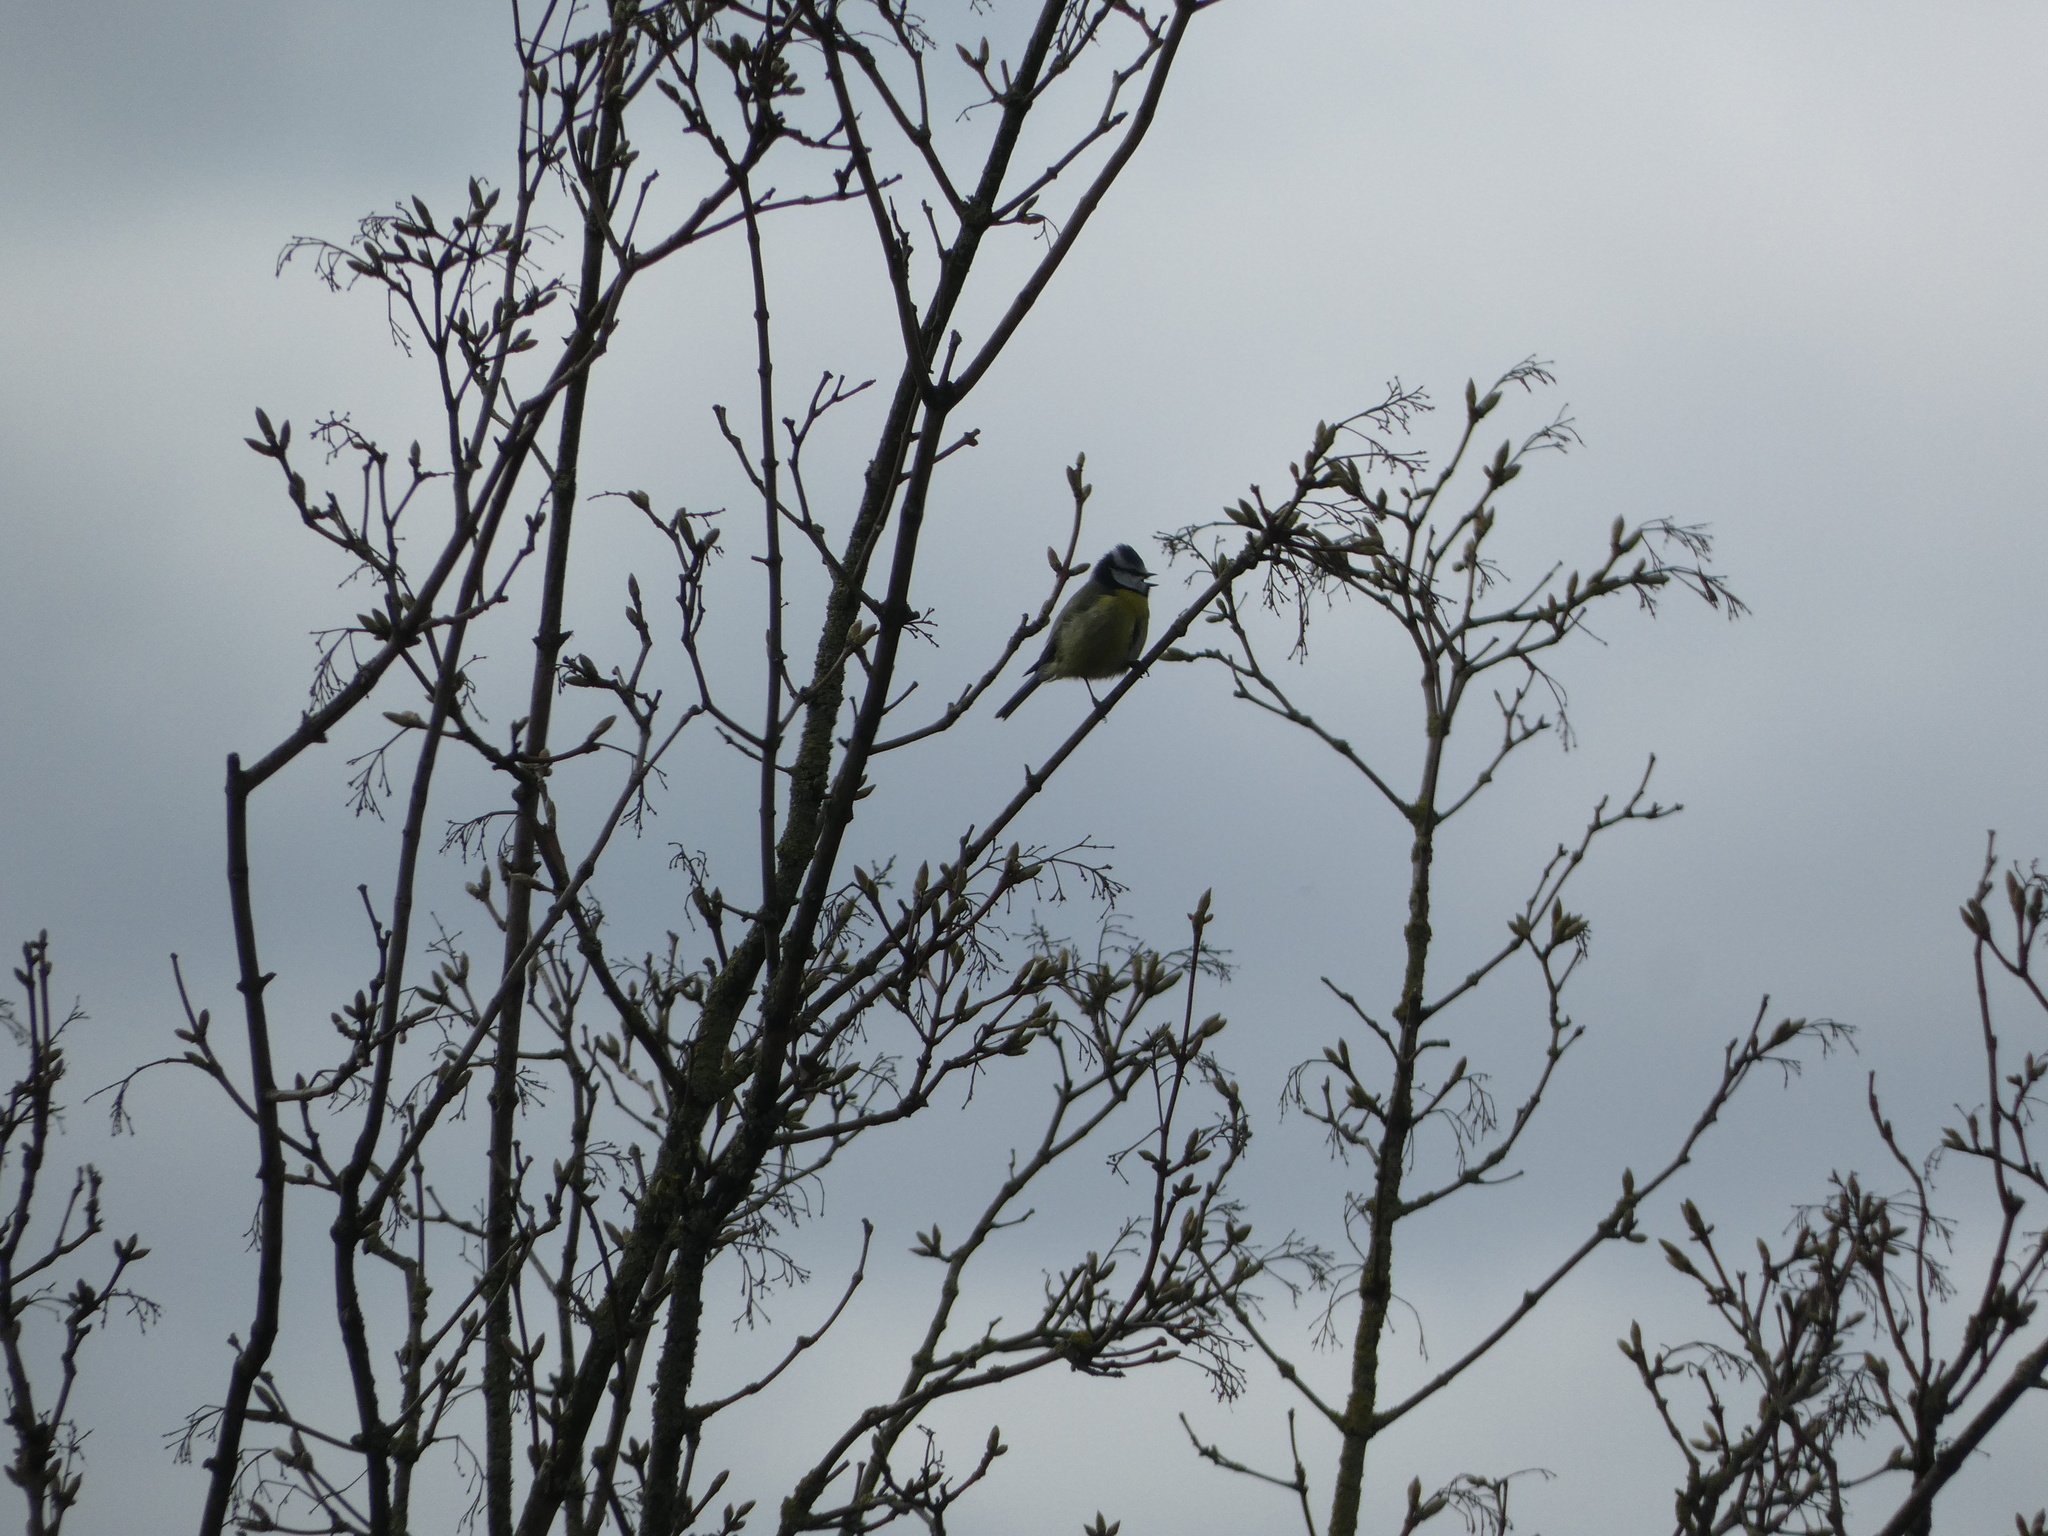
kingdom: Animalia
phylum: Chordata
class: Aves
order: Passeriformes
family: Paridae
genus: Cyanistes
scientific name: Cyanistes caeruleus
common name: Eurasian blue tit
